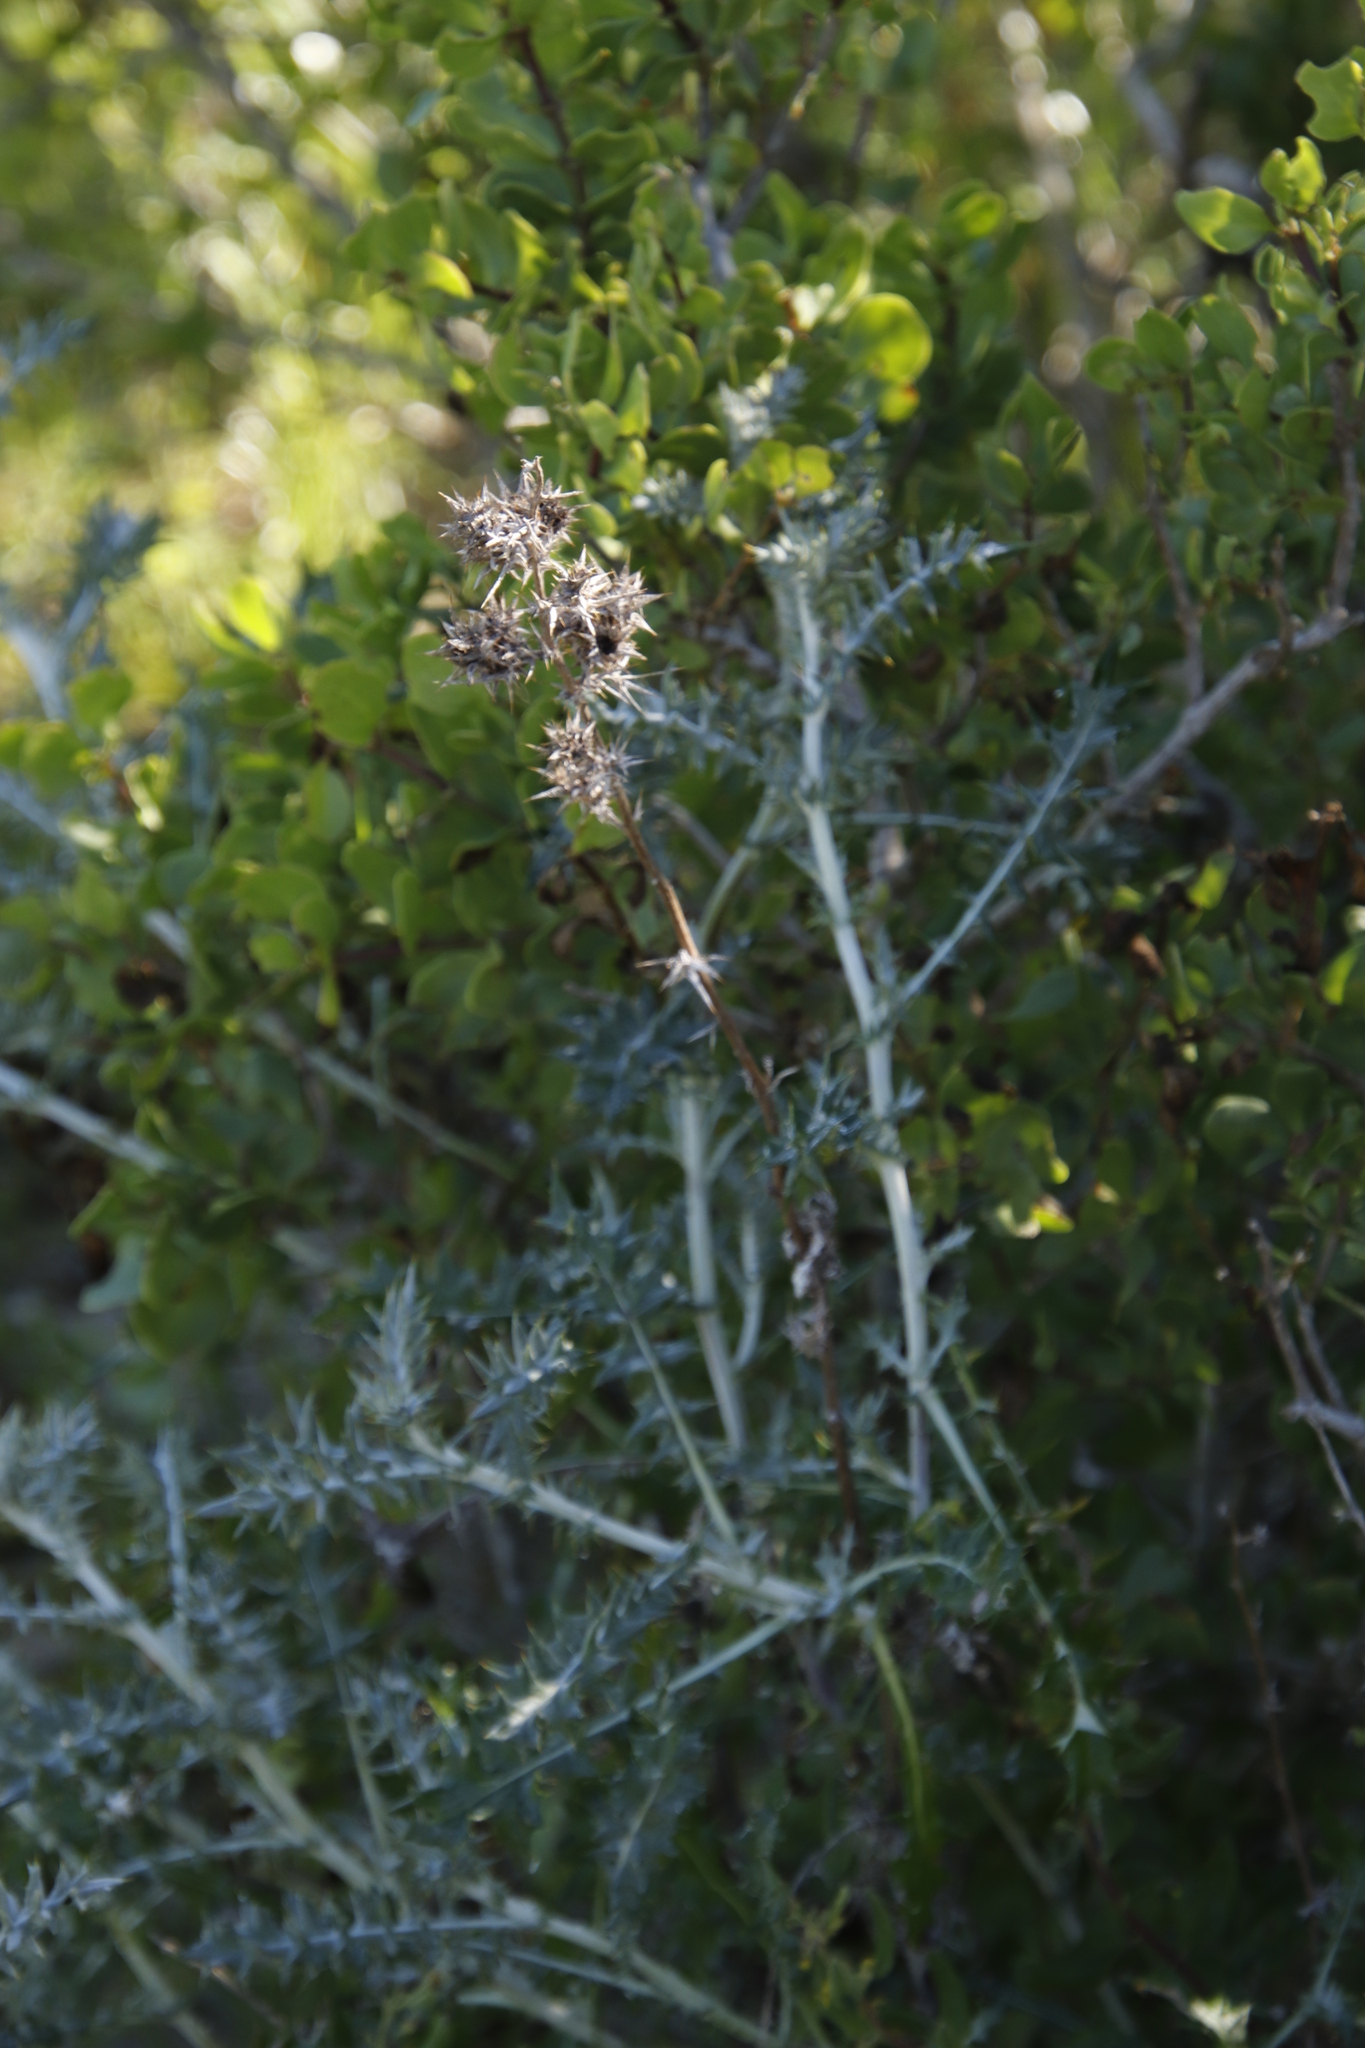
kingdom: Plantae
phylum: Tracheophyta
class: Magnoliopsida
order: Asterales
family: Asteraceae
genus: Berkheya
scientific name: Berkheya rigida
